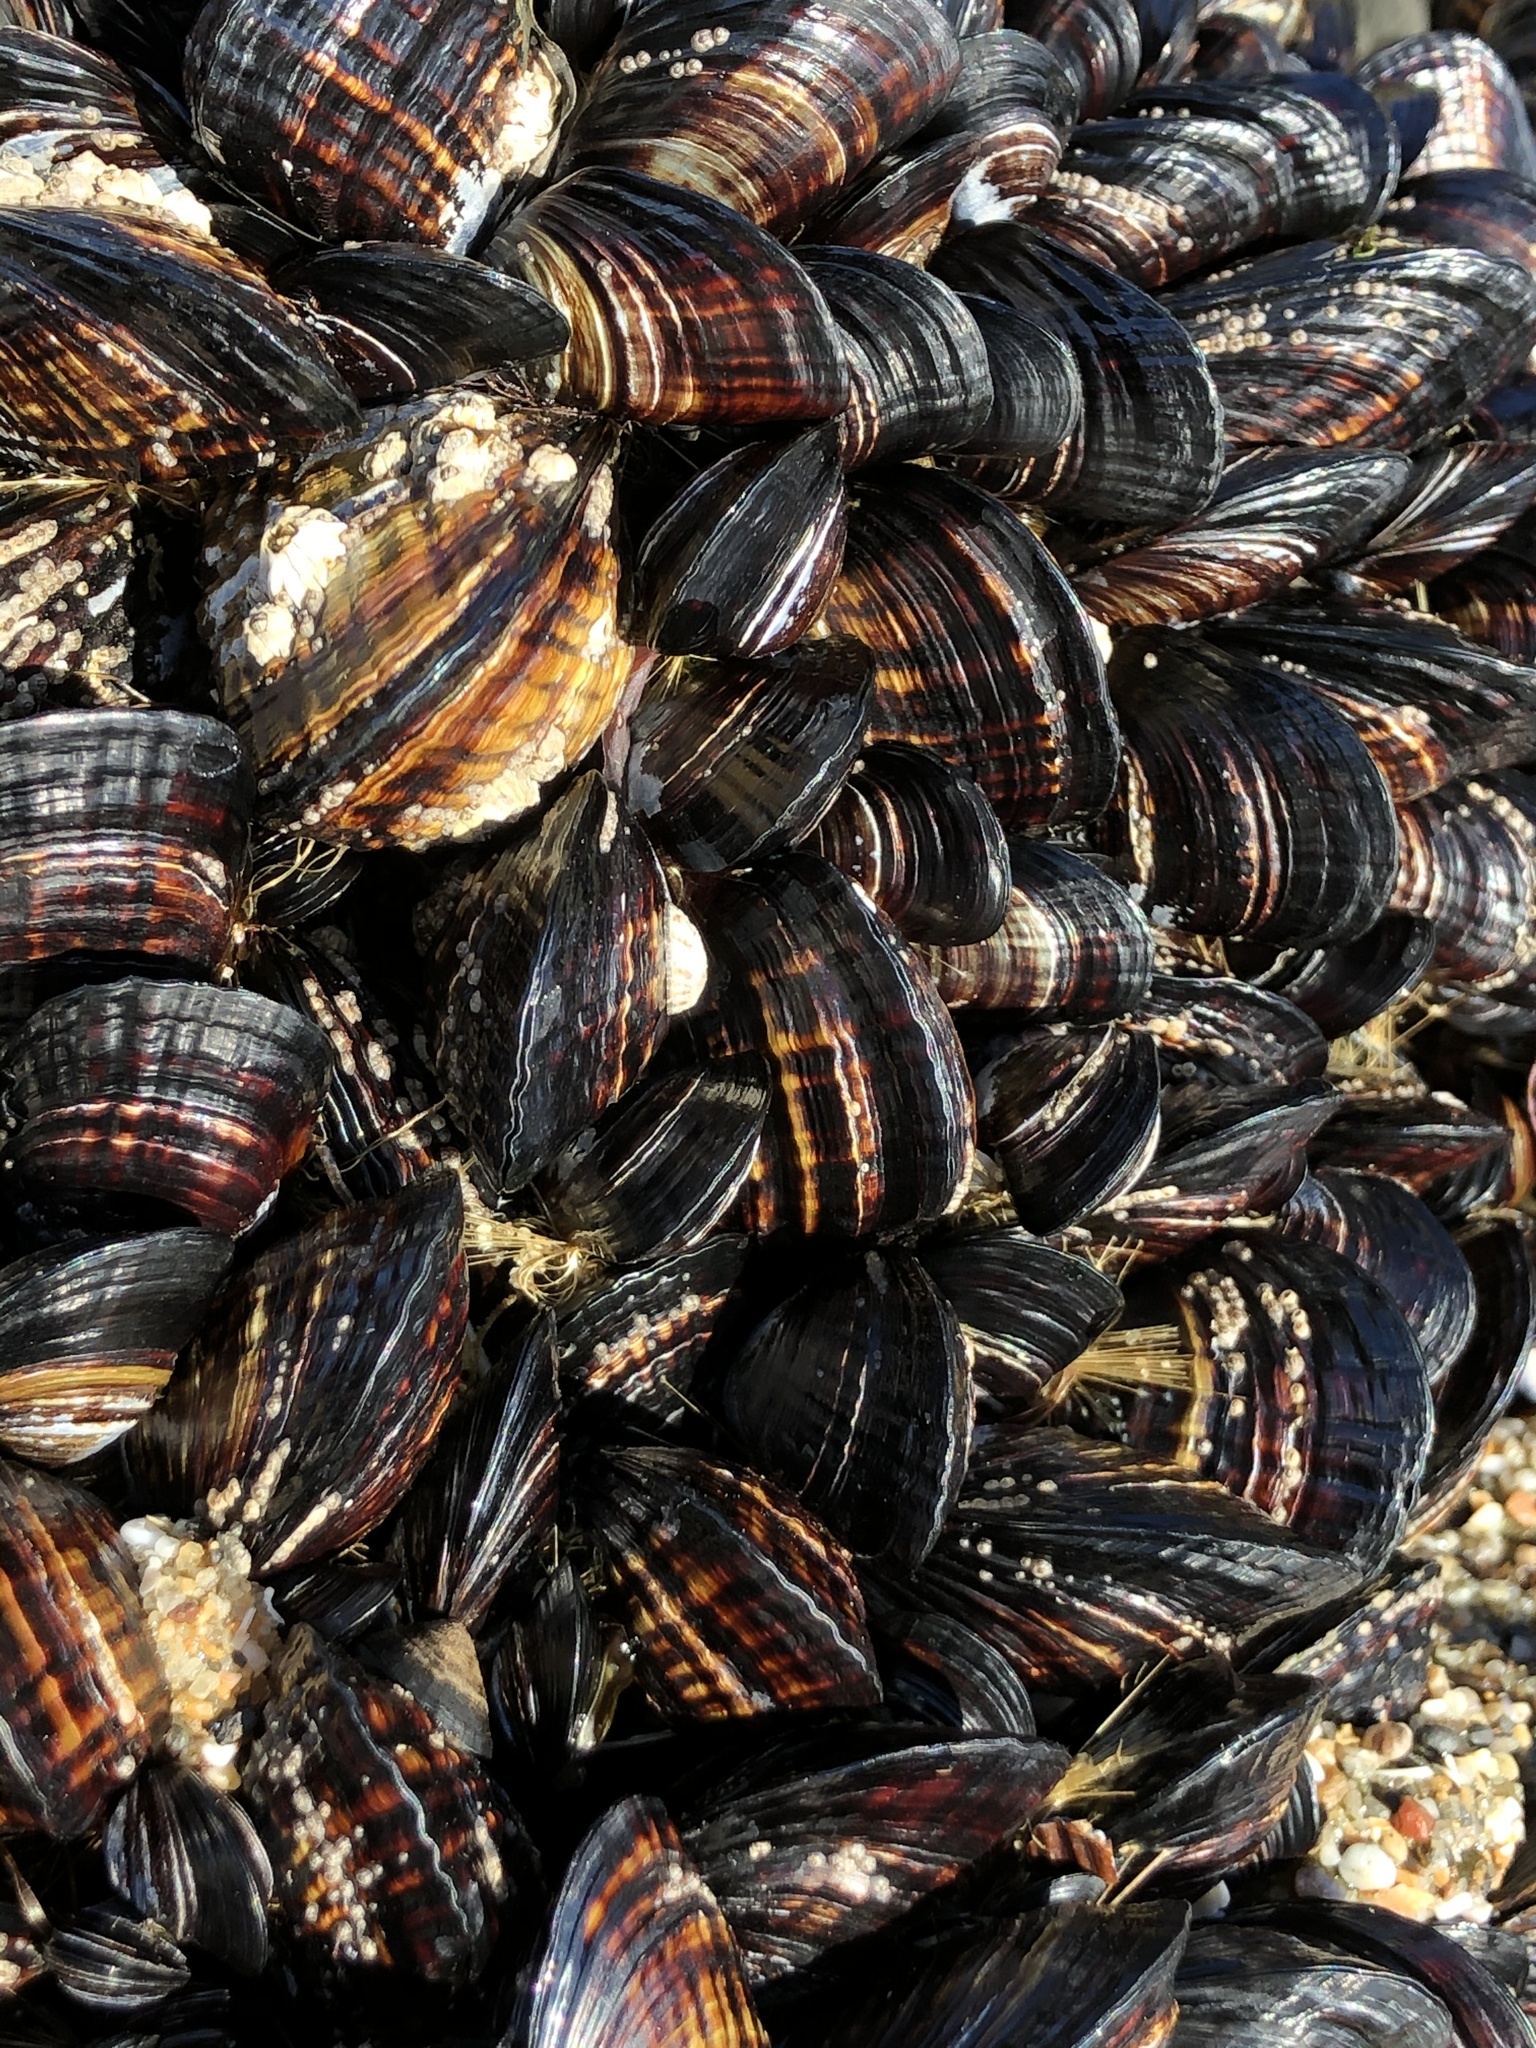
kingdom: Animalia
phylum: Mollusca
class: Bivalvia
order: Mytilida
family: Mytilidae
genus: Mytilus
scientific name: Mytilus californianus
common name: California mussel
